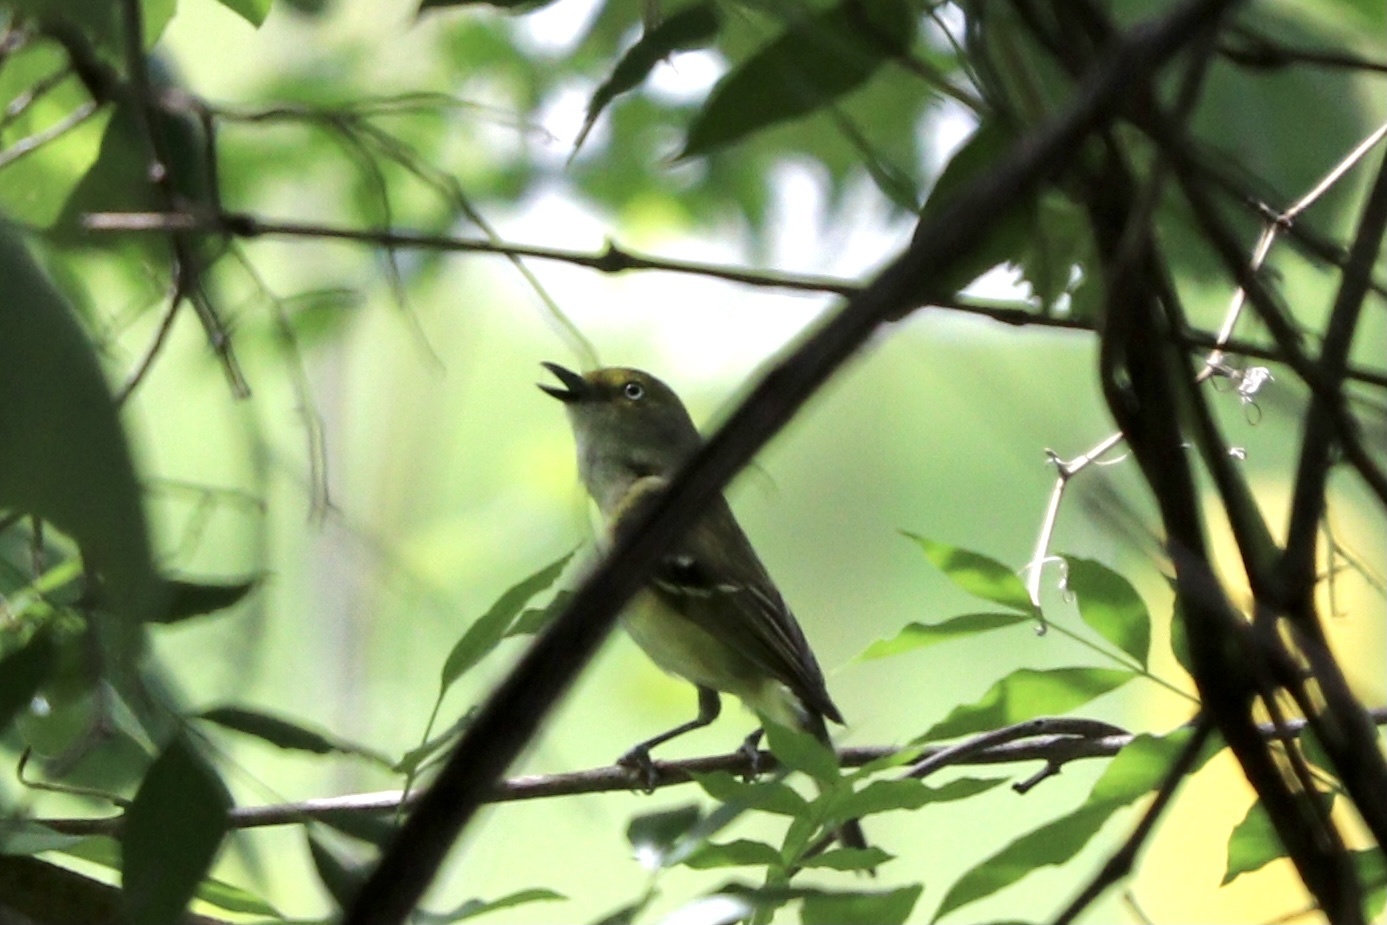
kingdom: Animalia
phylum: Chordata
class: Aves
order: Passeriformes
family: Vireonidae
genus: Vireo
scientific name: Vireo griseus
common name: White-eyed vireo
